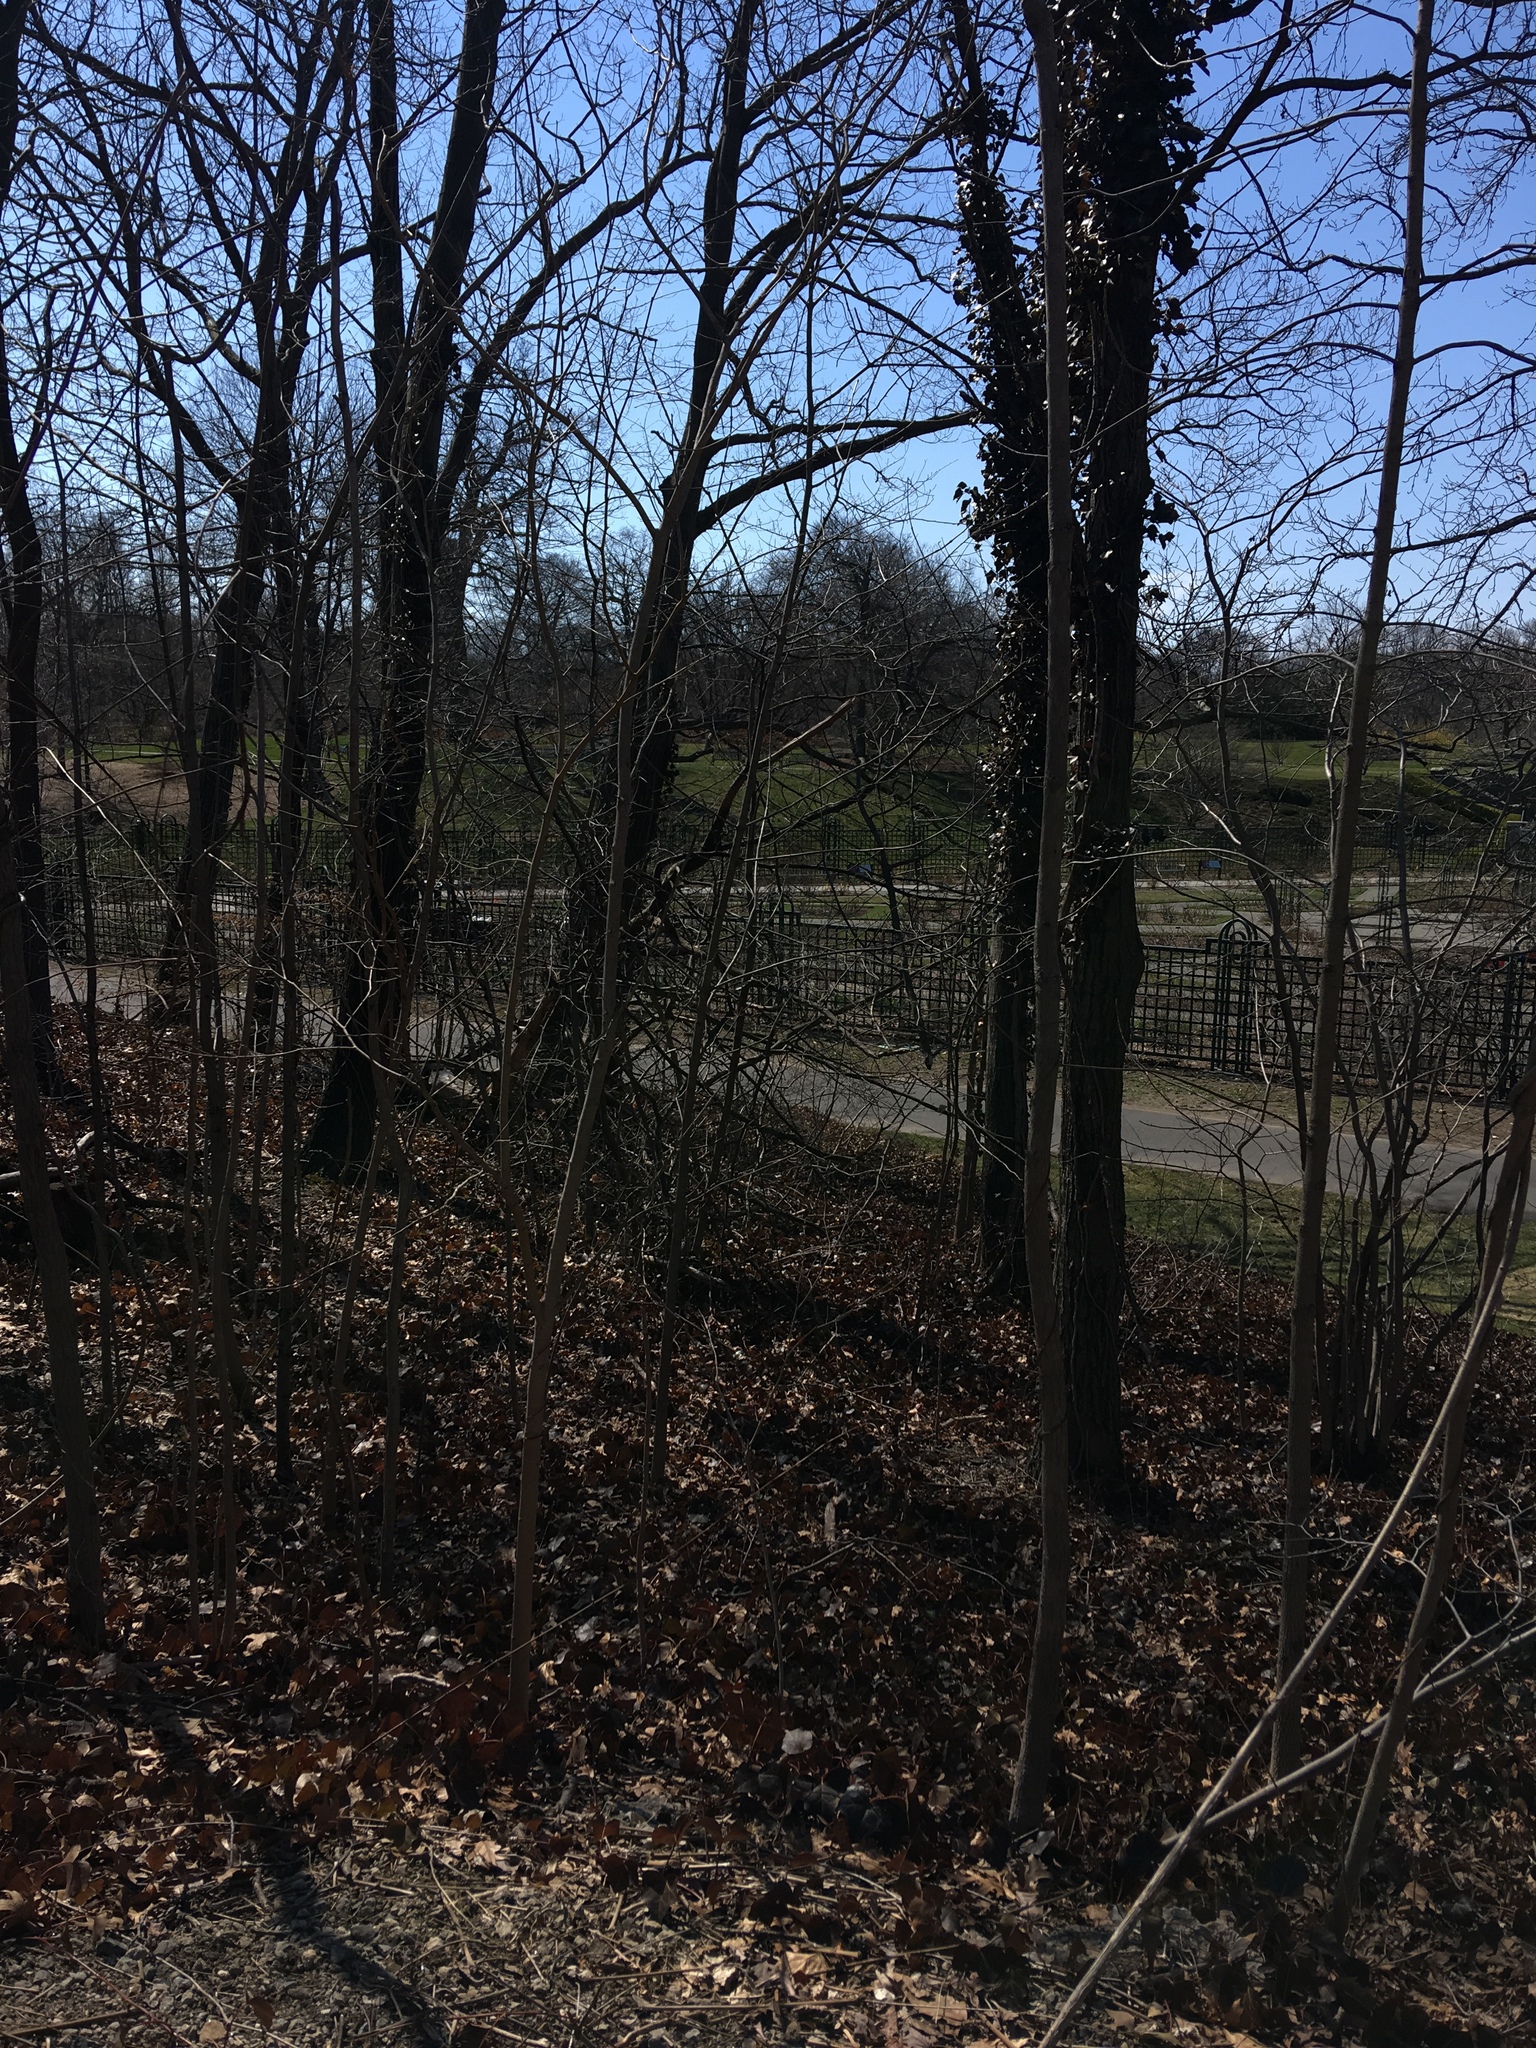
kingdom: Plantae
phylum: Tracheophyta
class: Magnoliopsida
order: Apiales
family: Araliaceae
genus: Hedera
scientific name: Hedera helix
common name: Ivy
